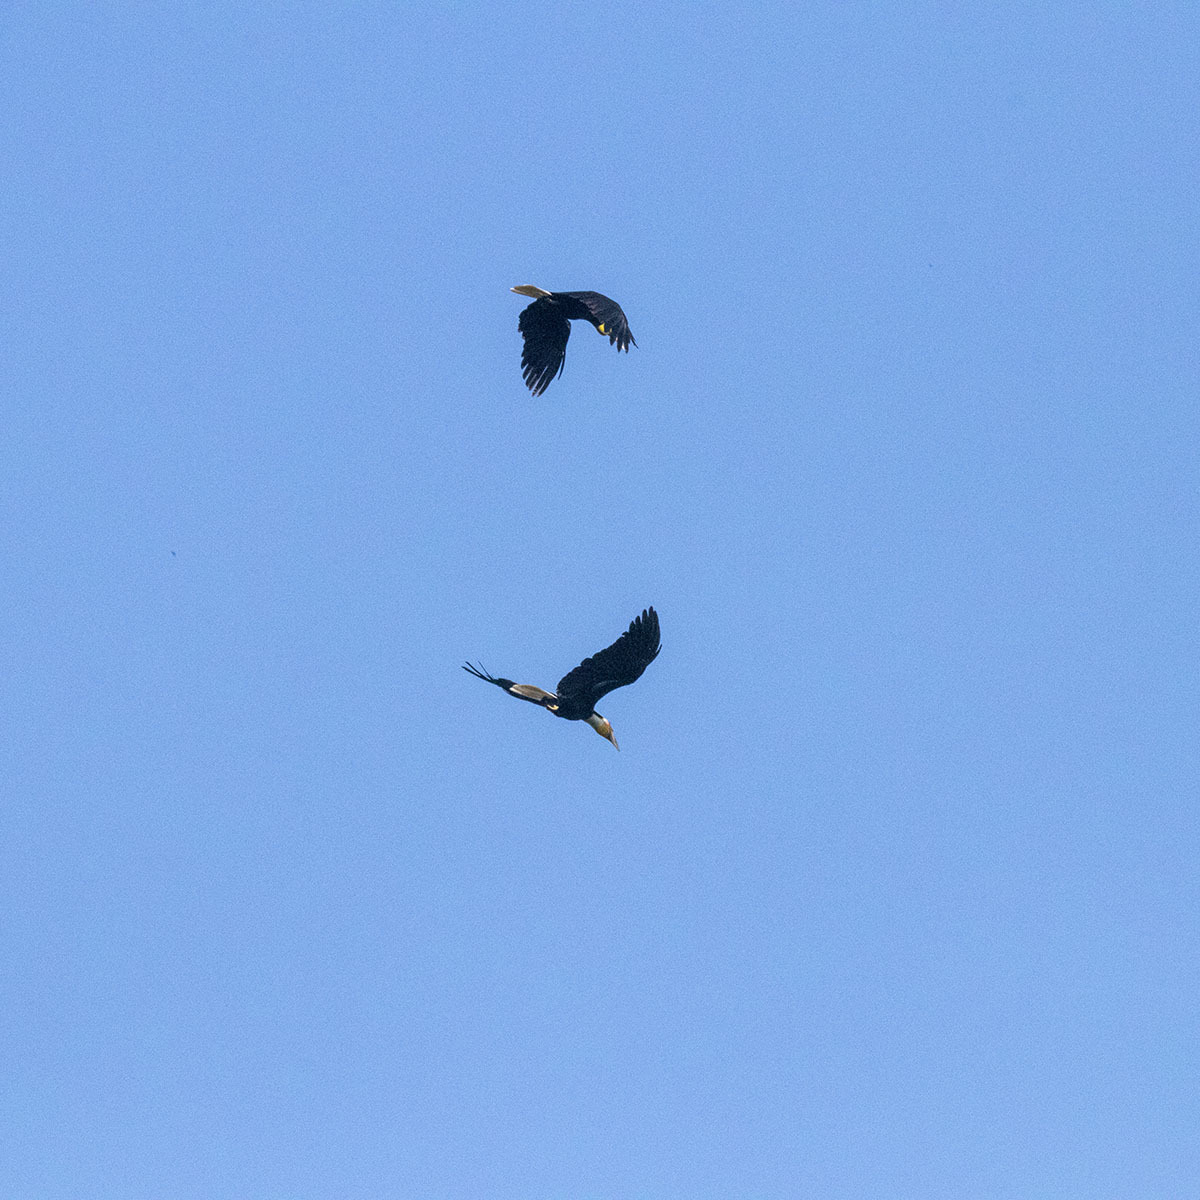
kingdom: Animalia
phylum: Chordata
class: Aves
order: Bucerotiformes
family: Bucerotidae
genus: Rhyticeros
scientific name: Rhyticeros undulatus
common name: Wreathed hornbill
